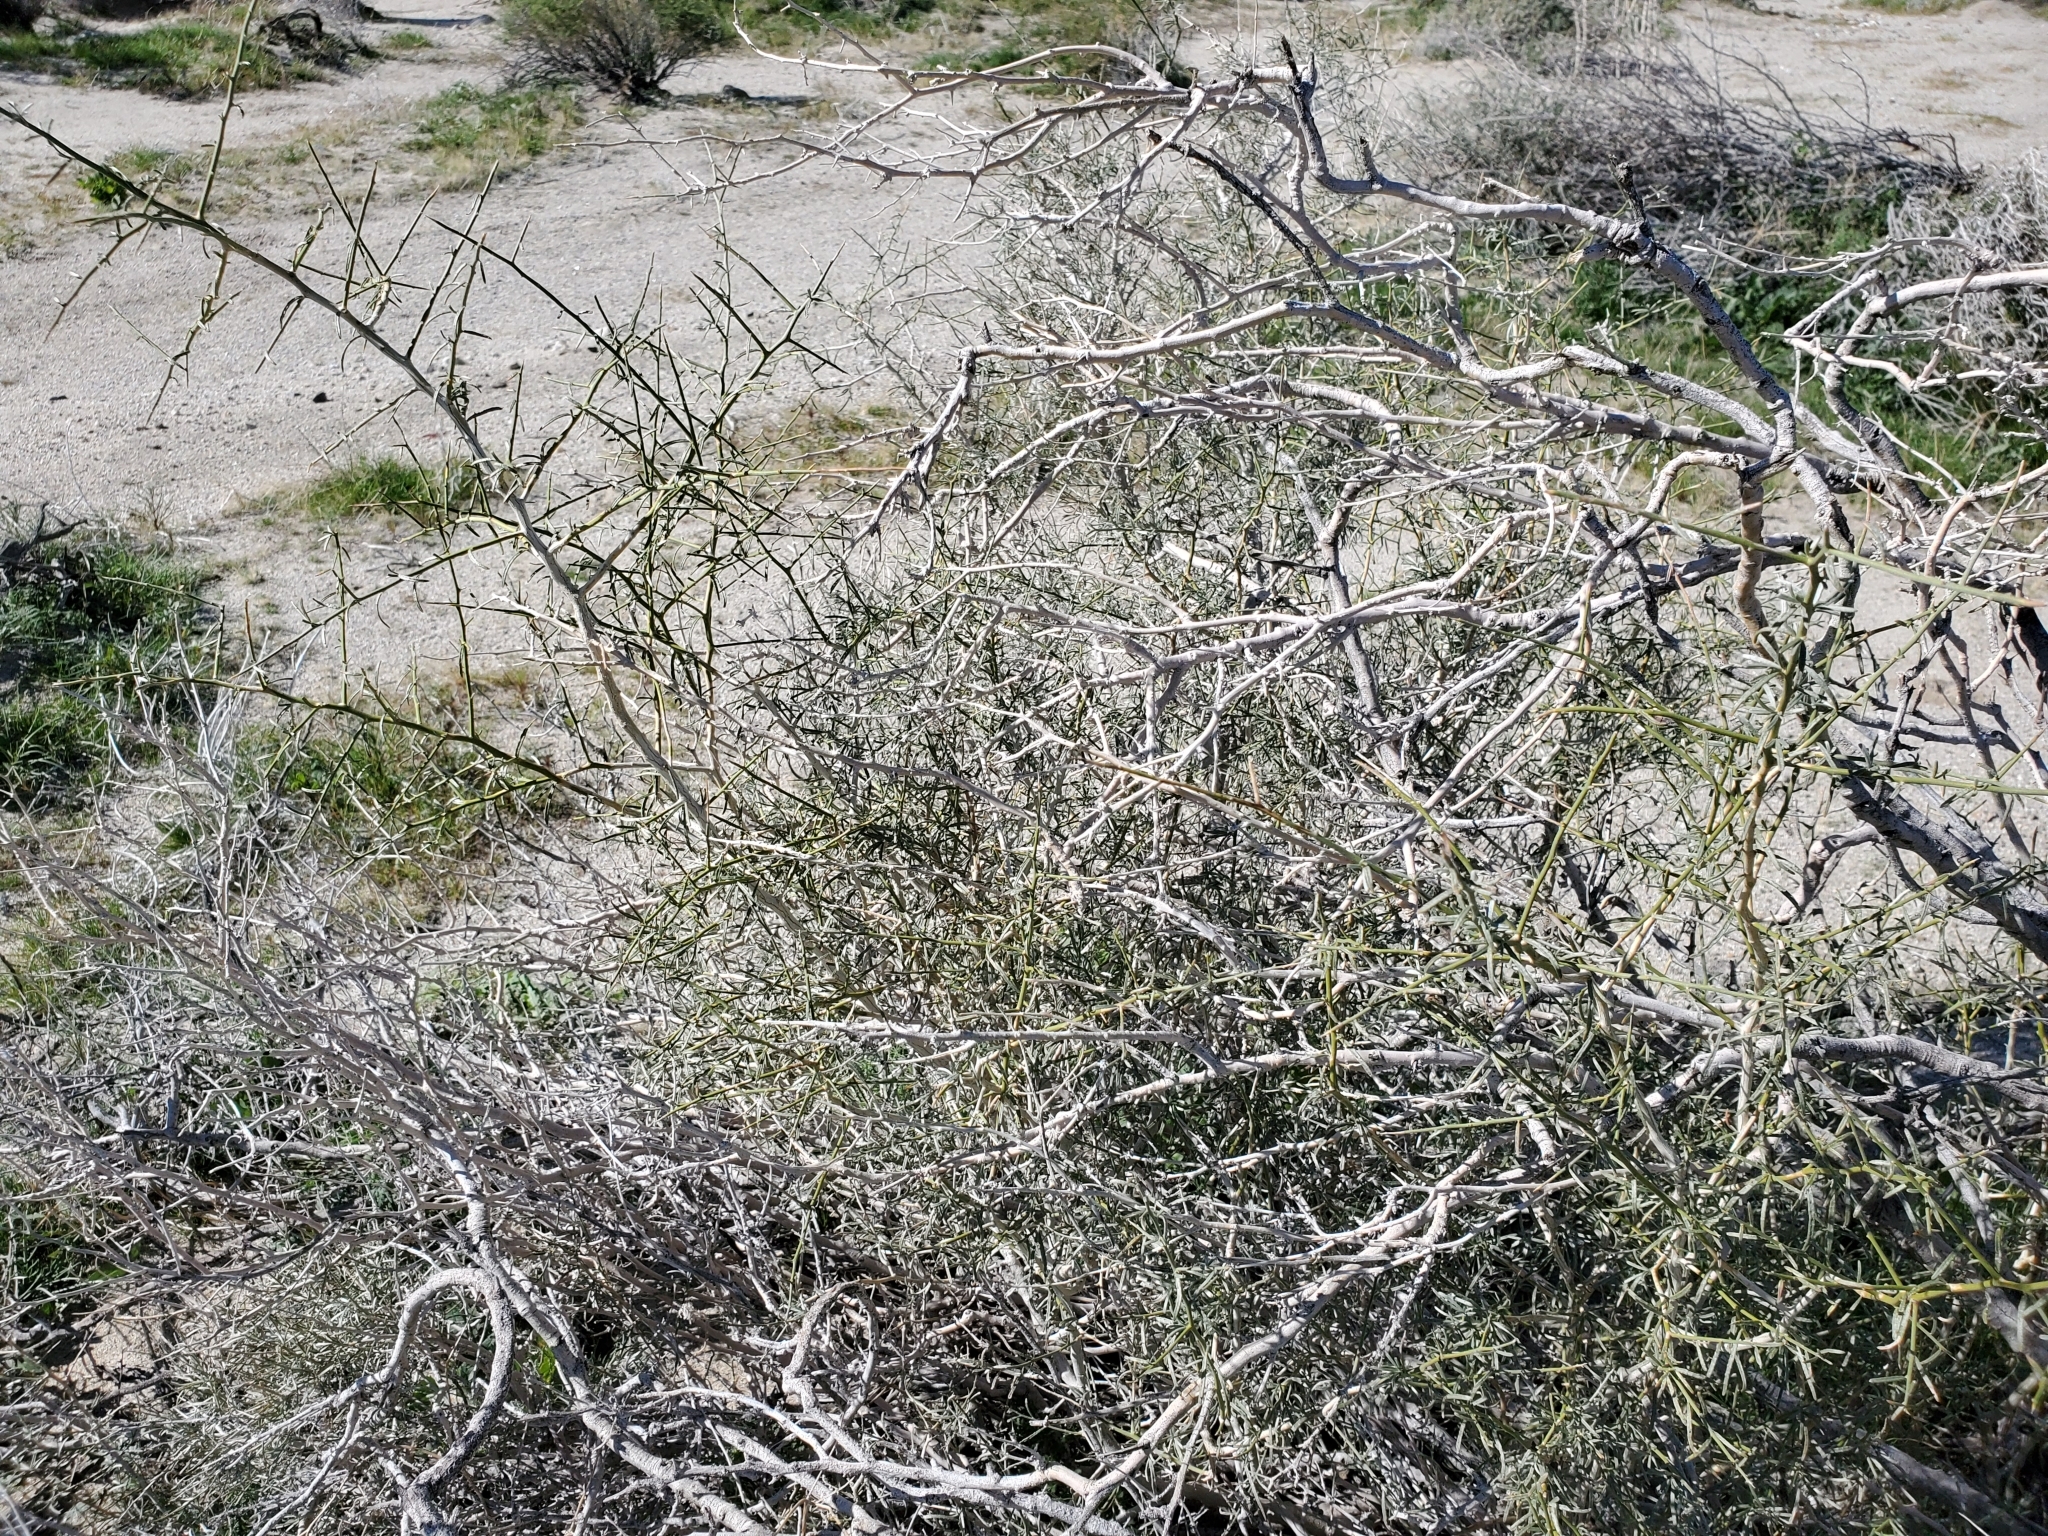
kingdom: Plantae
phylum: Tracheophyta
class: Magnoliopsida
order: Fabales
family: Fabaceae
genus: Psorothamnus
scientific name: Psorothamnus schottii
